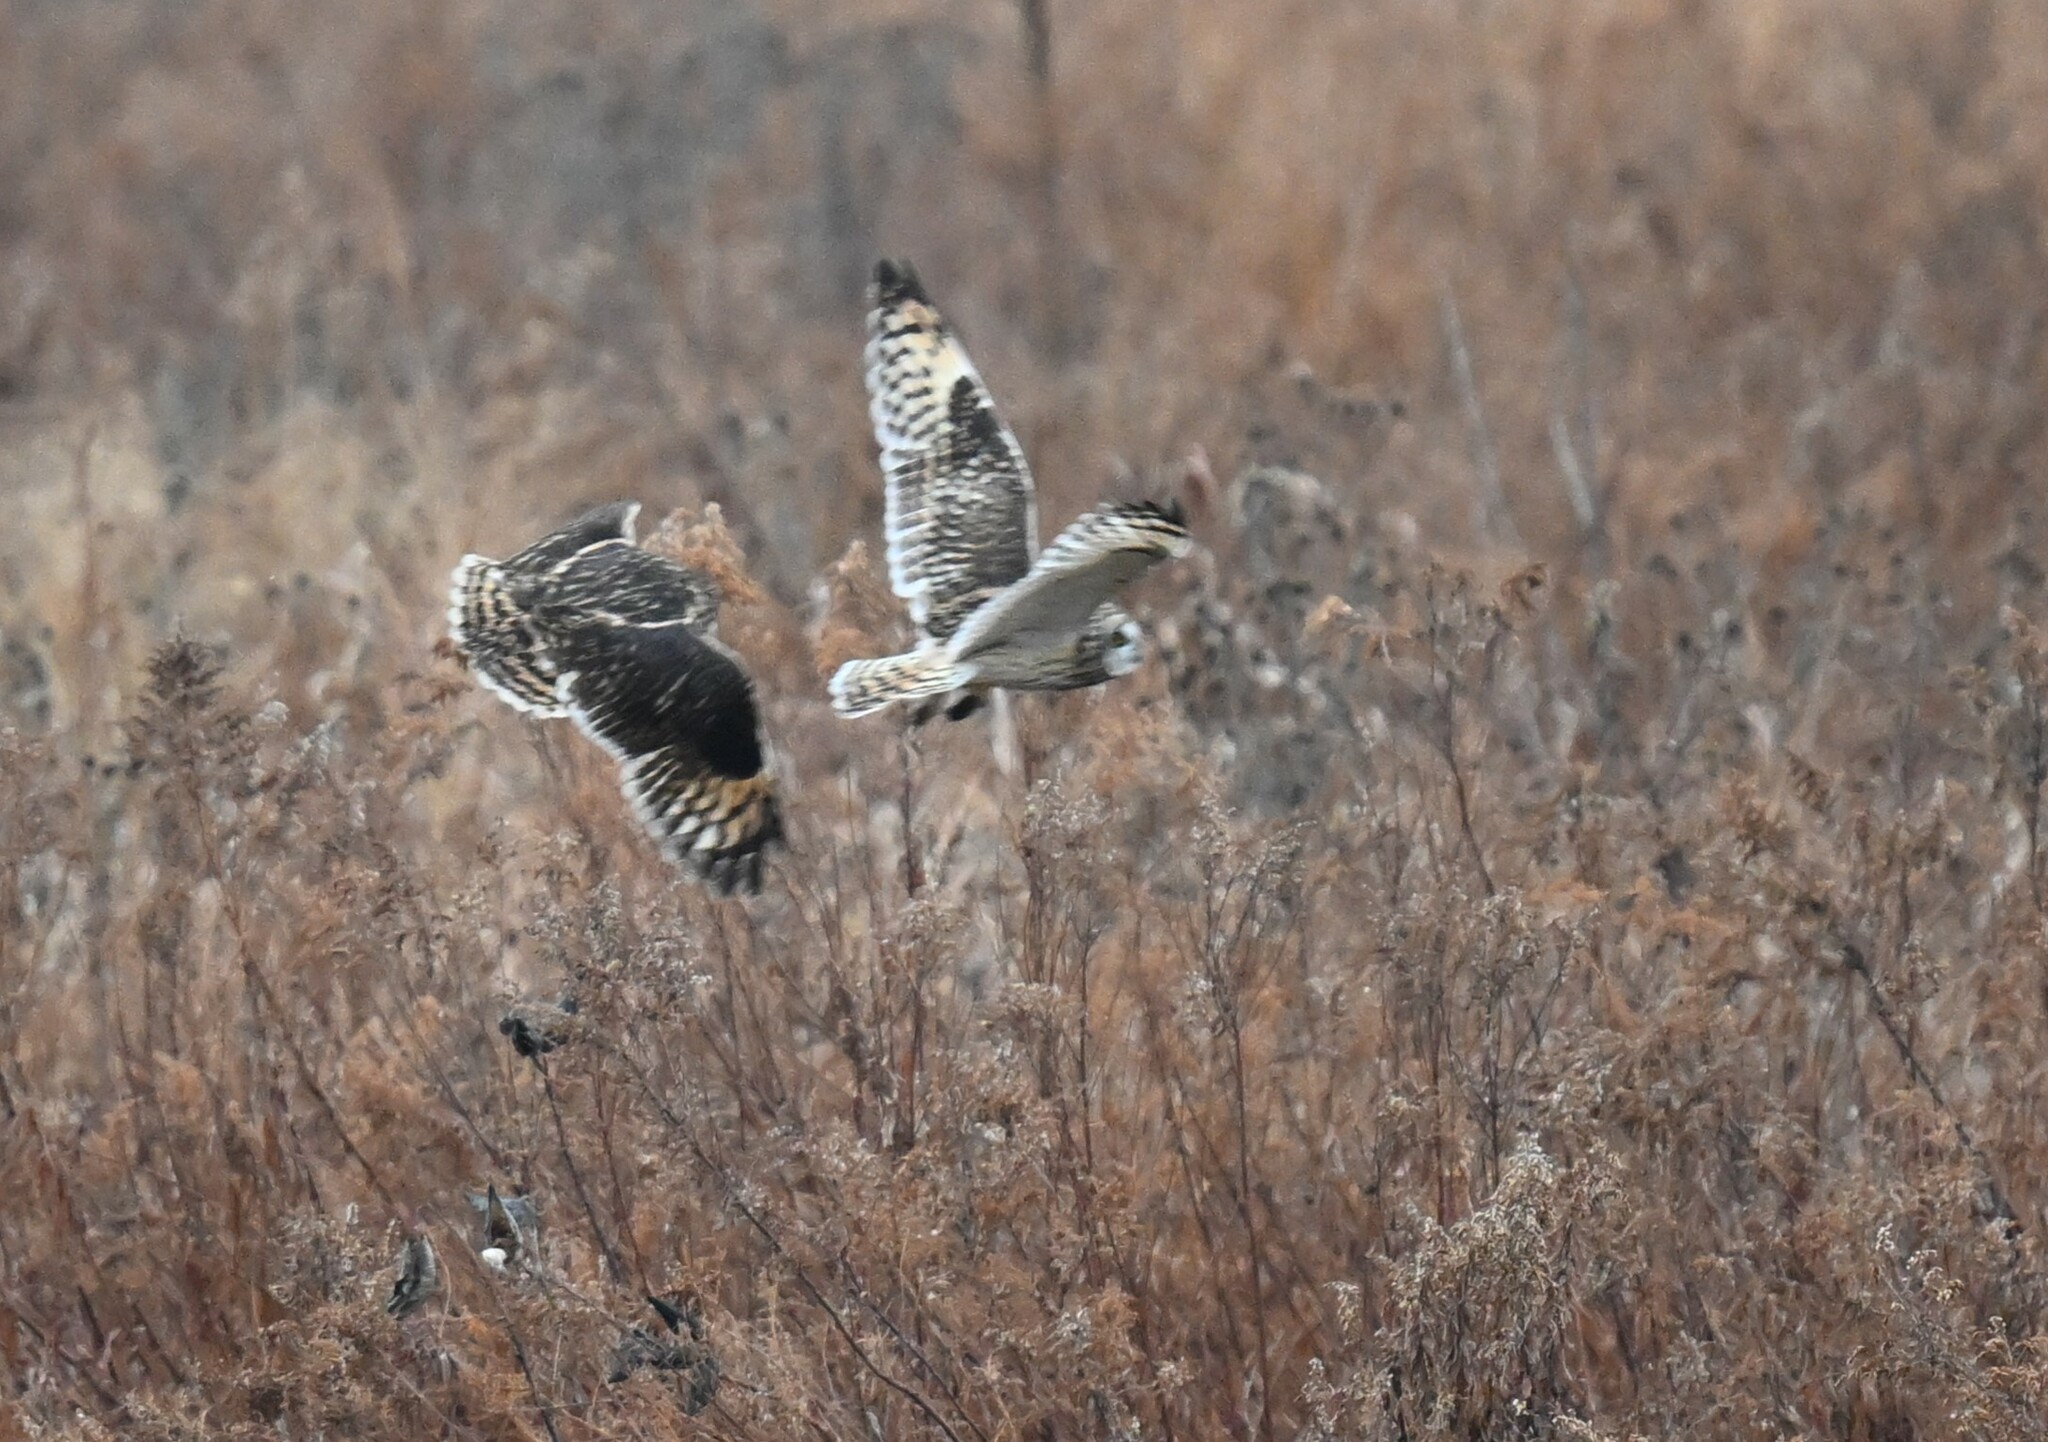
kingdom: Animalia
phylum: Chordata
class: Aves
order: Strigiformes
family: Strigidae
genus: Asio
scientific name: Asio flammeus
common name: Short-eared owl
